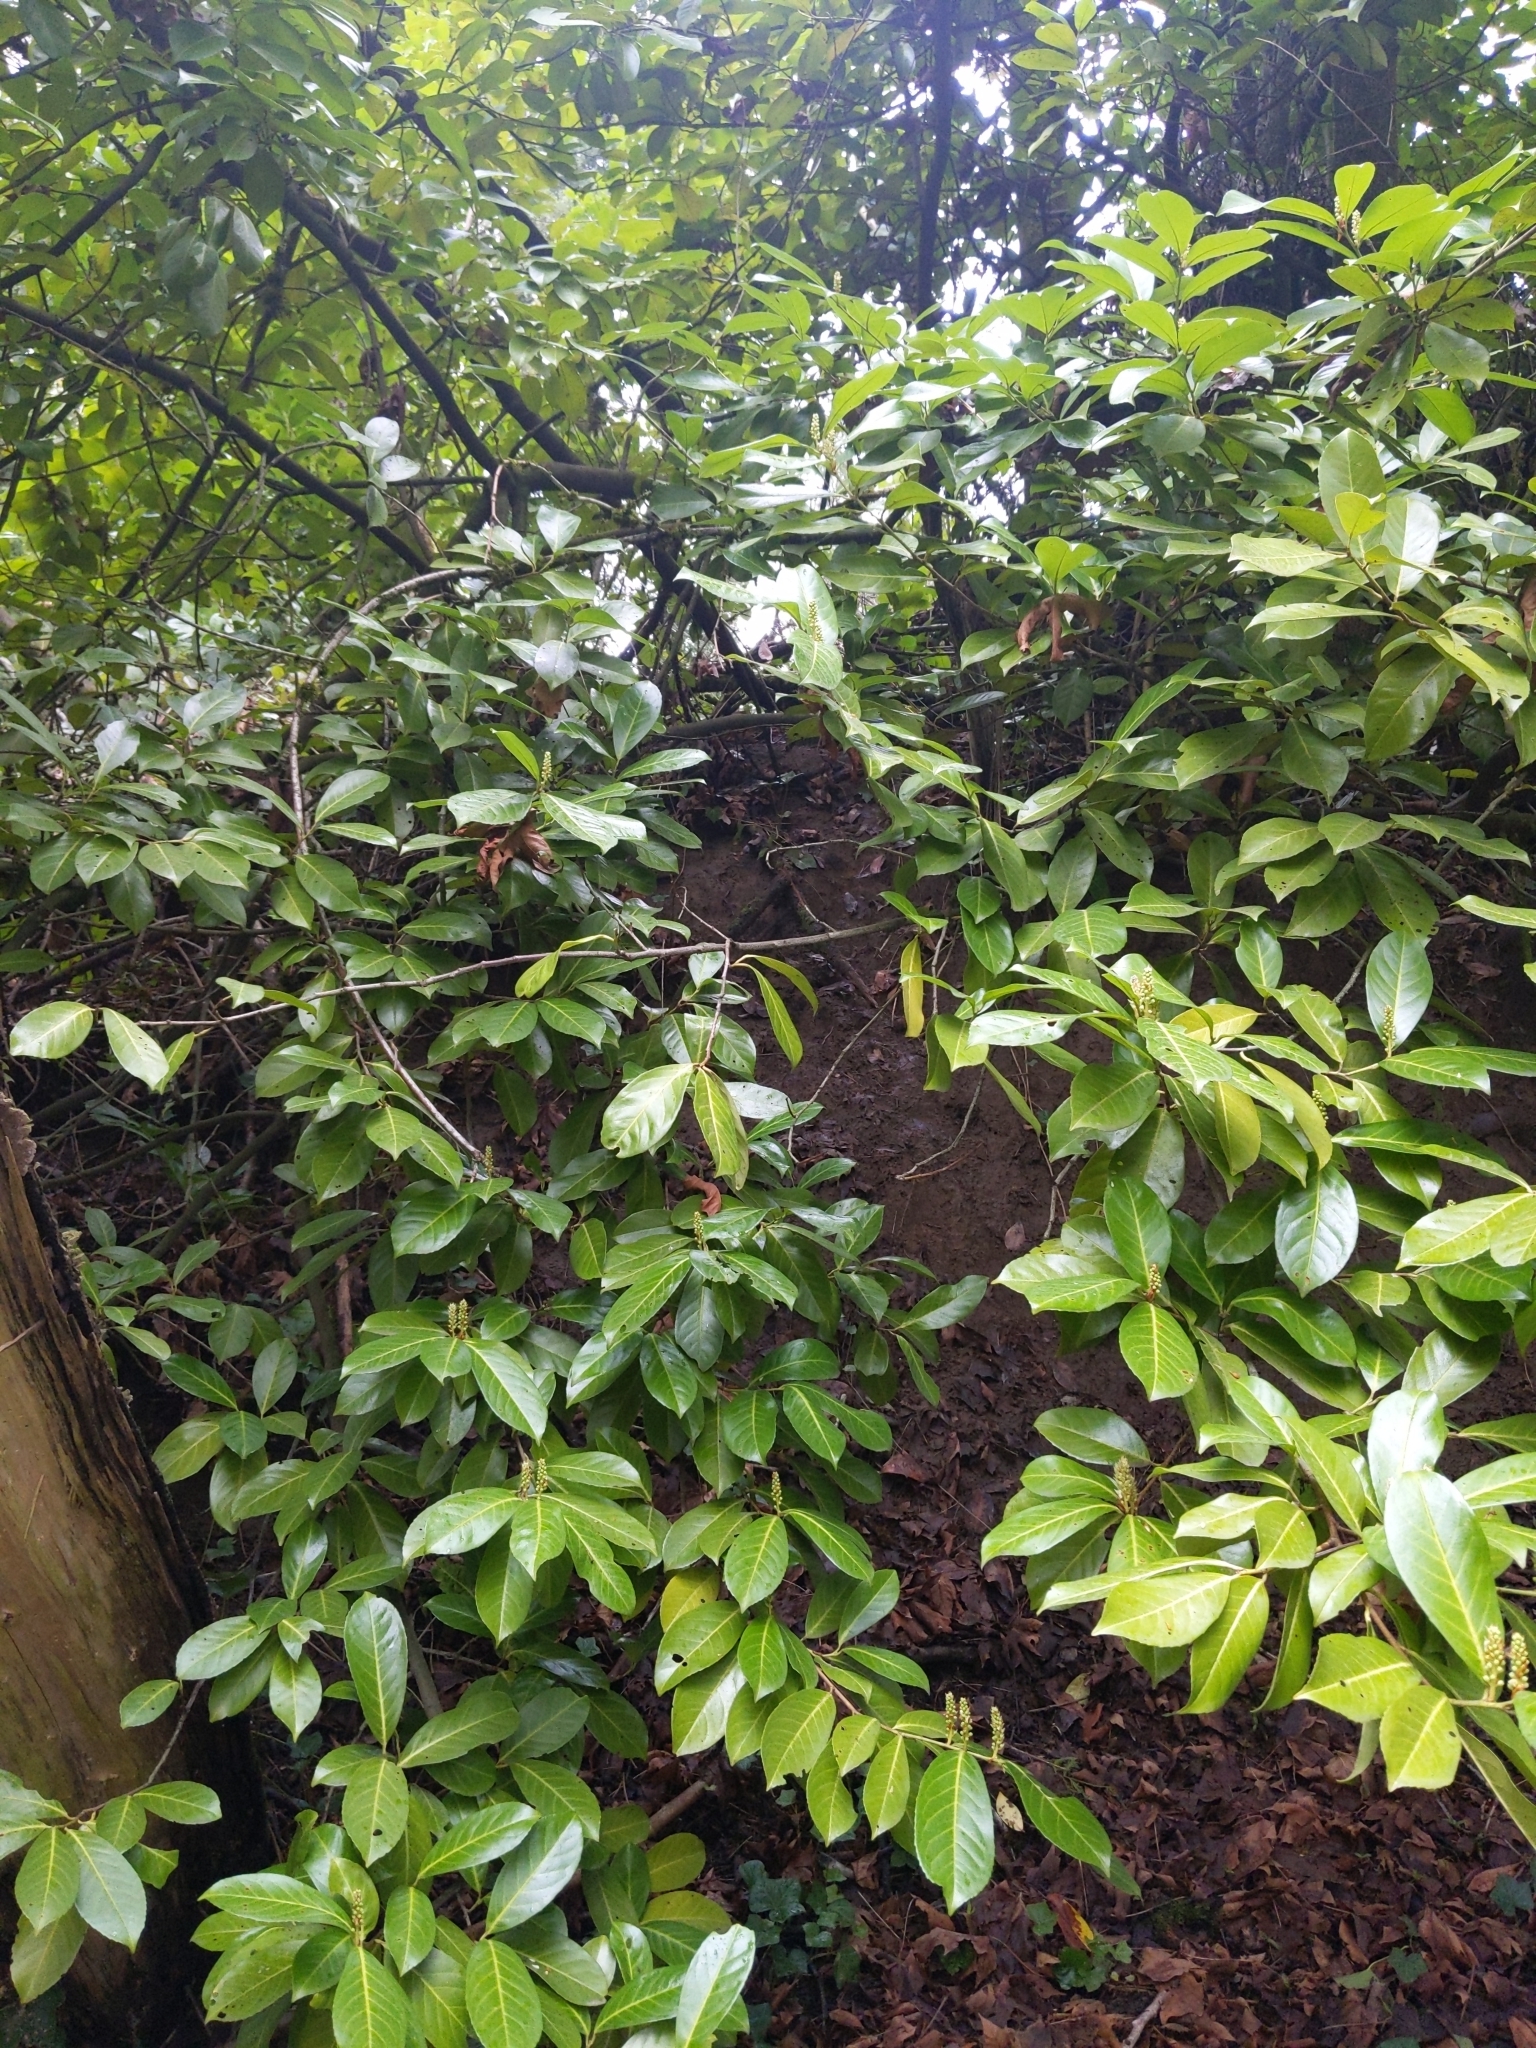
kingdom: Plantae
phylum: Tracheophyta
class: Magnoliopsida
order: Rosales
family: Rosaceae
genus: Prunus
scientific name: Prunus laurocerasus
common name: Cherry laurel
